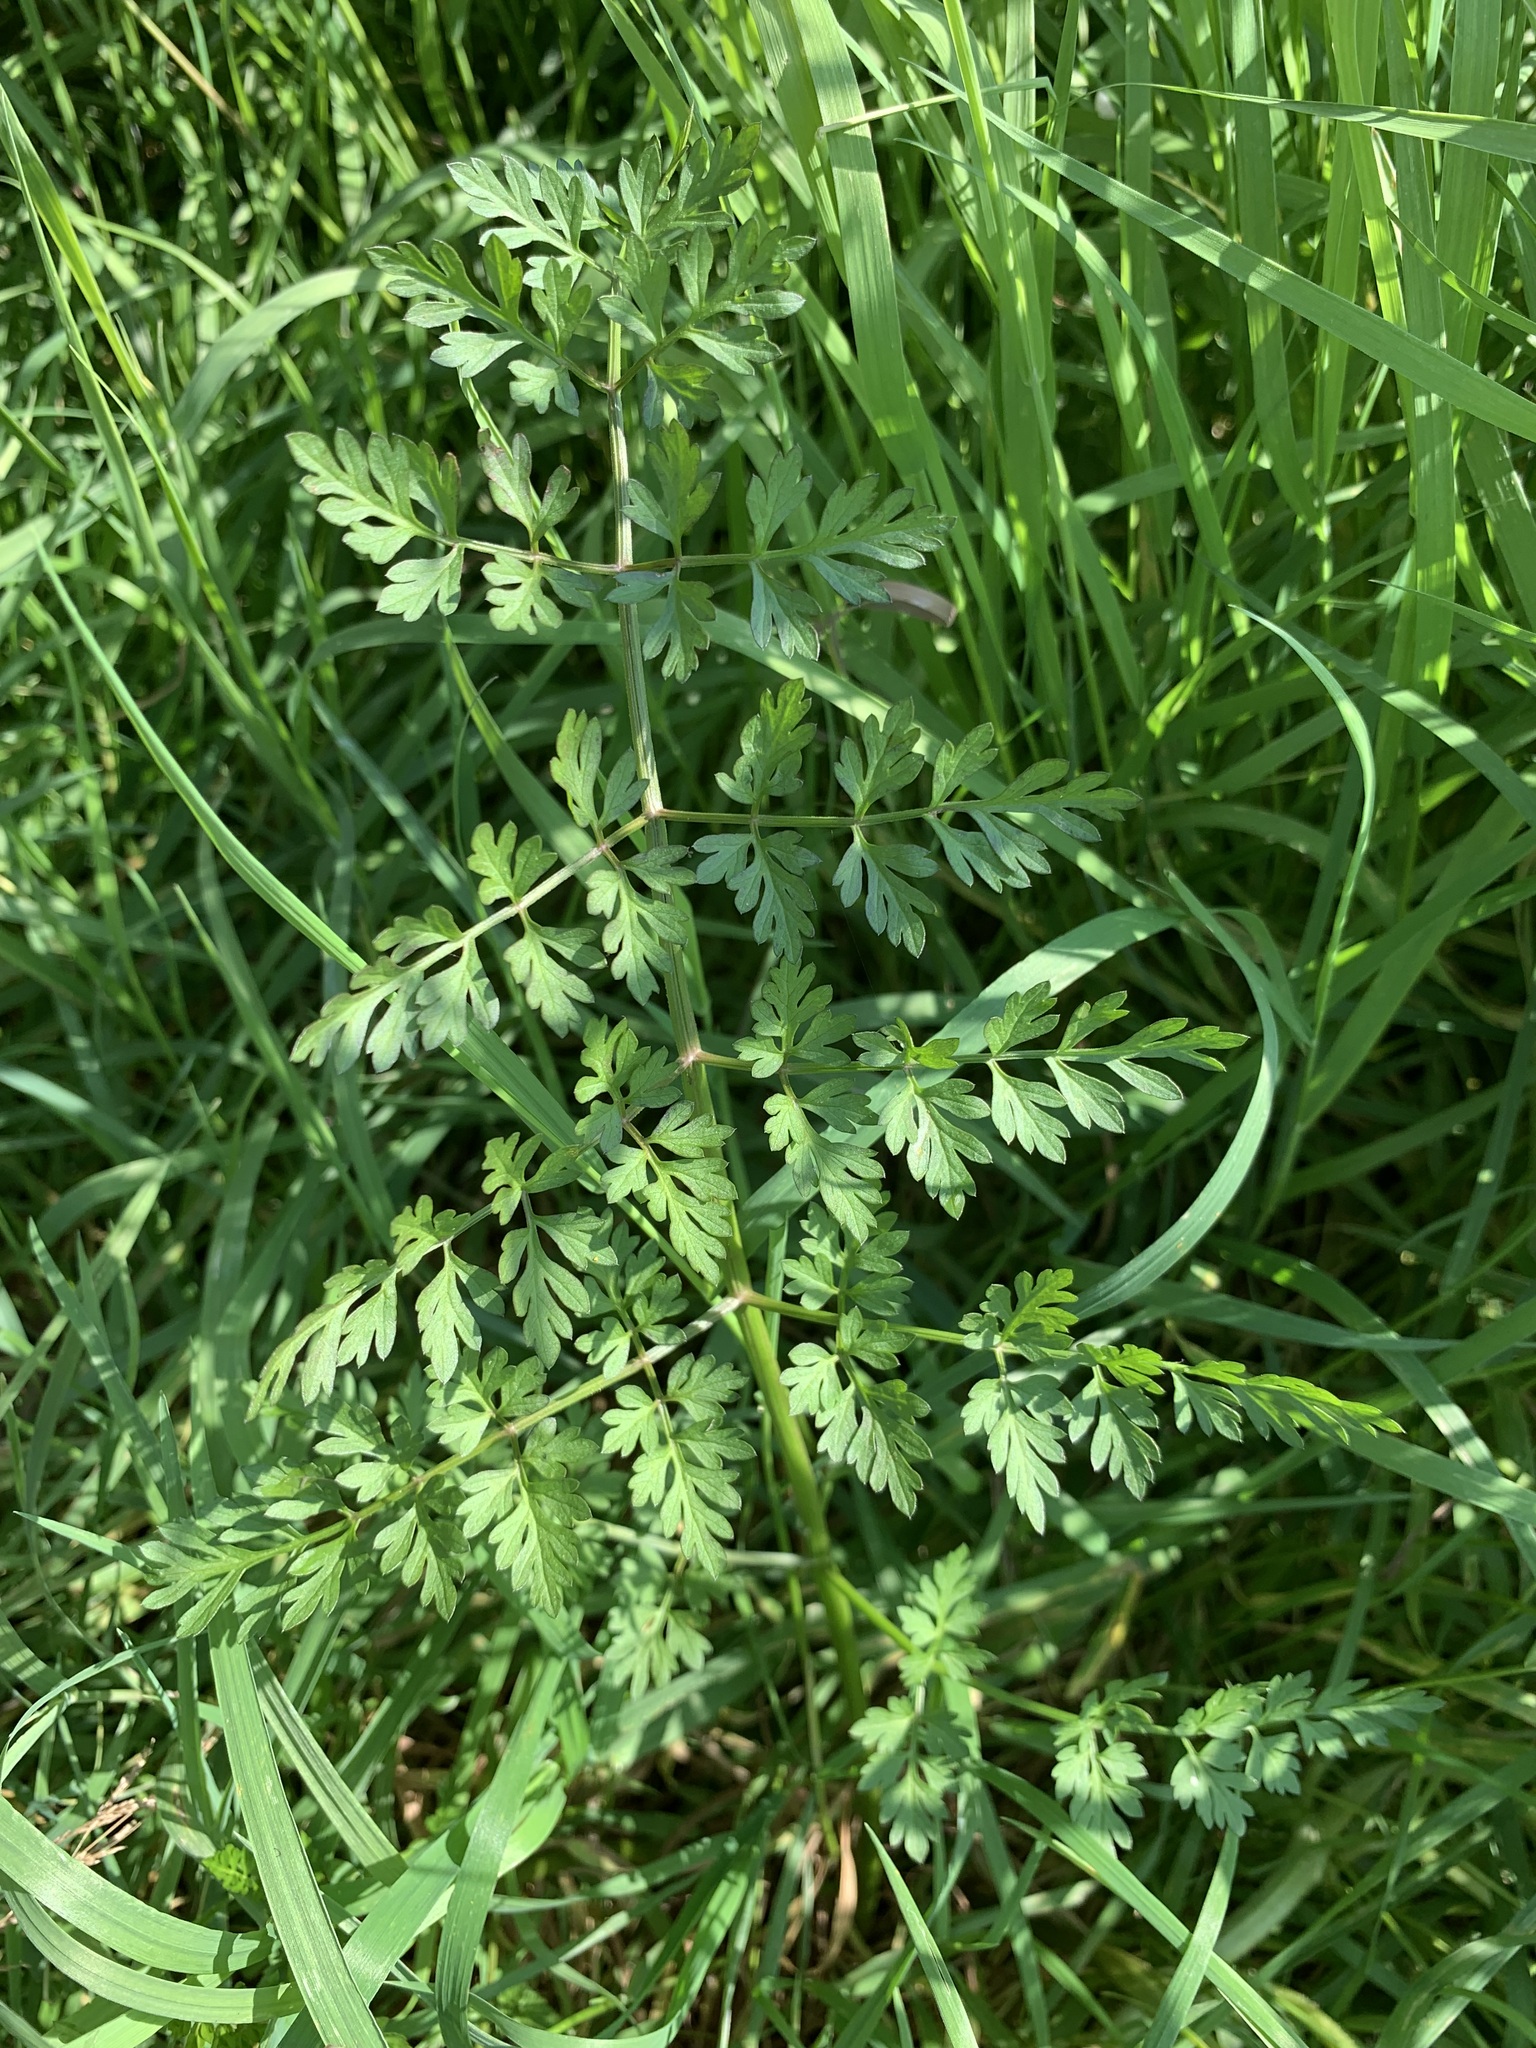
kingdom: Plantae
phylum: Tracheophyta
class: Magnoliopsida
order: Apiales
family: Apiaceae
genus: Oenanthe
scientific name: Oenanthe aquatica
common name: Fine-leaved water-dropwort
